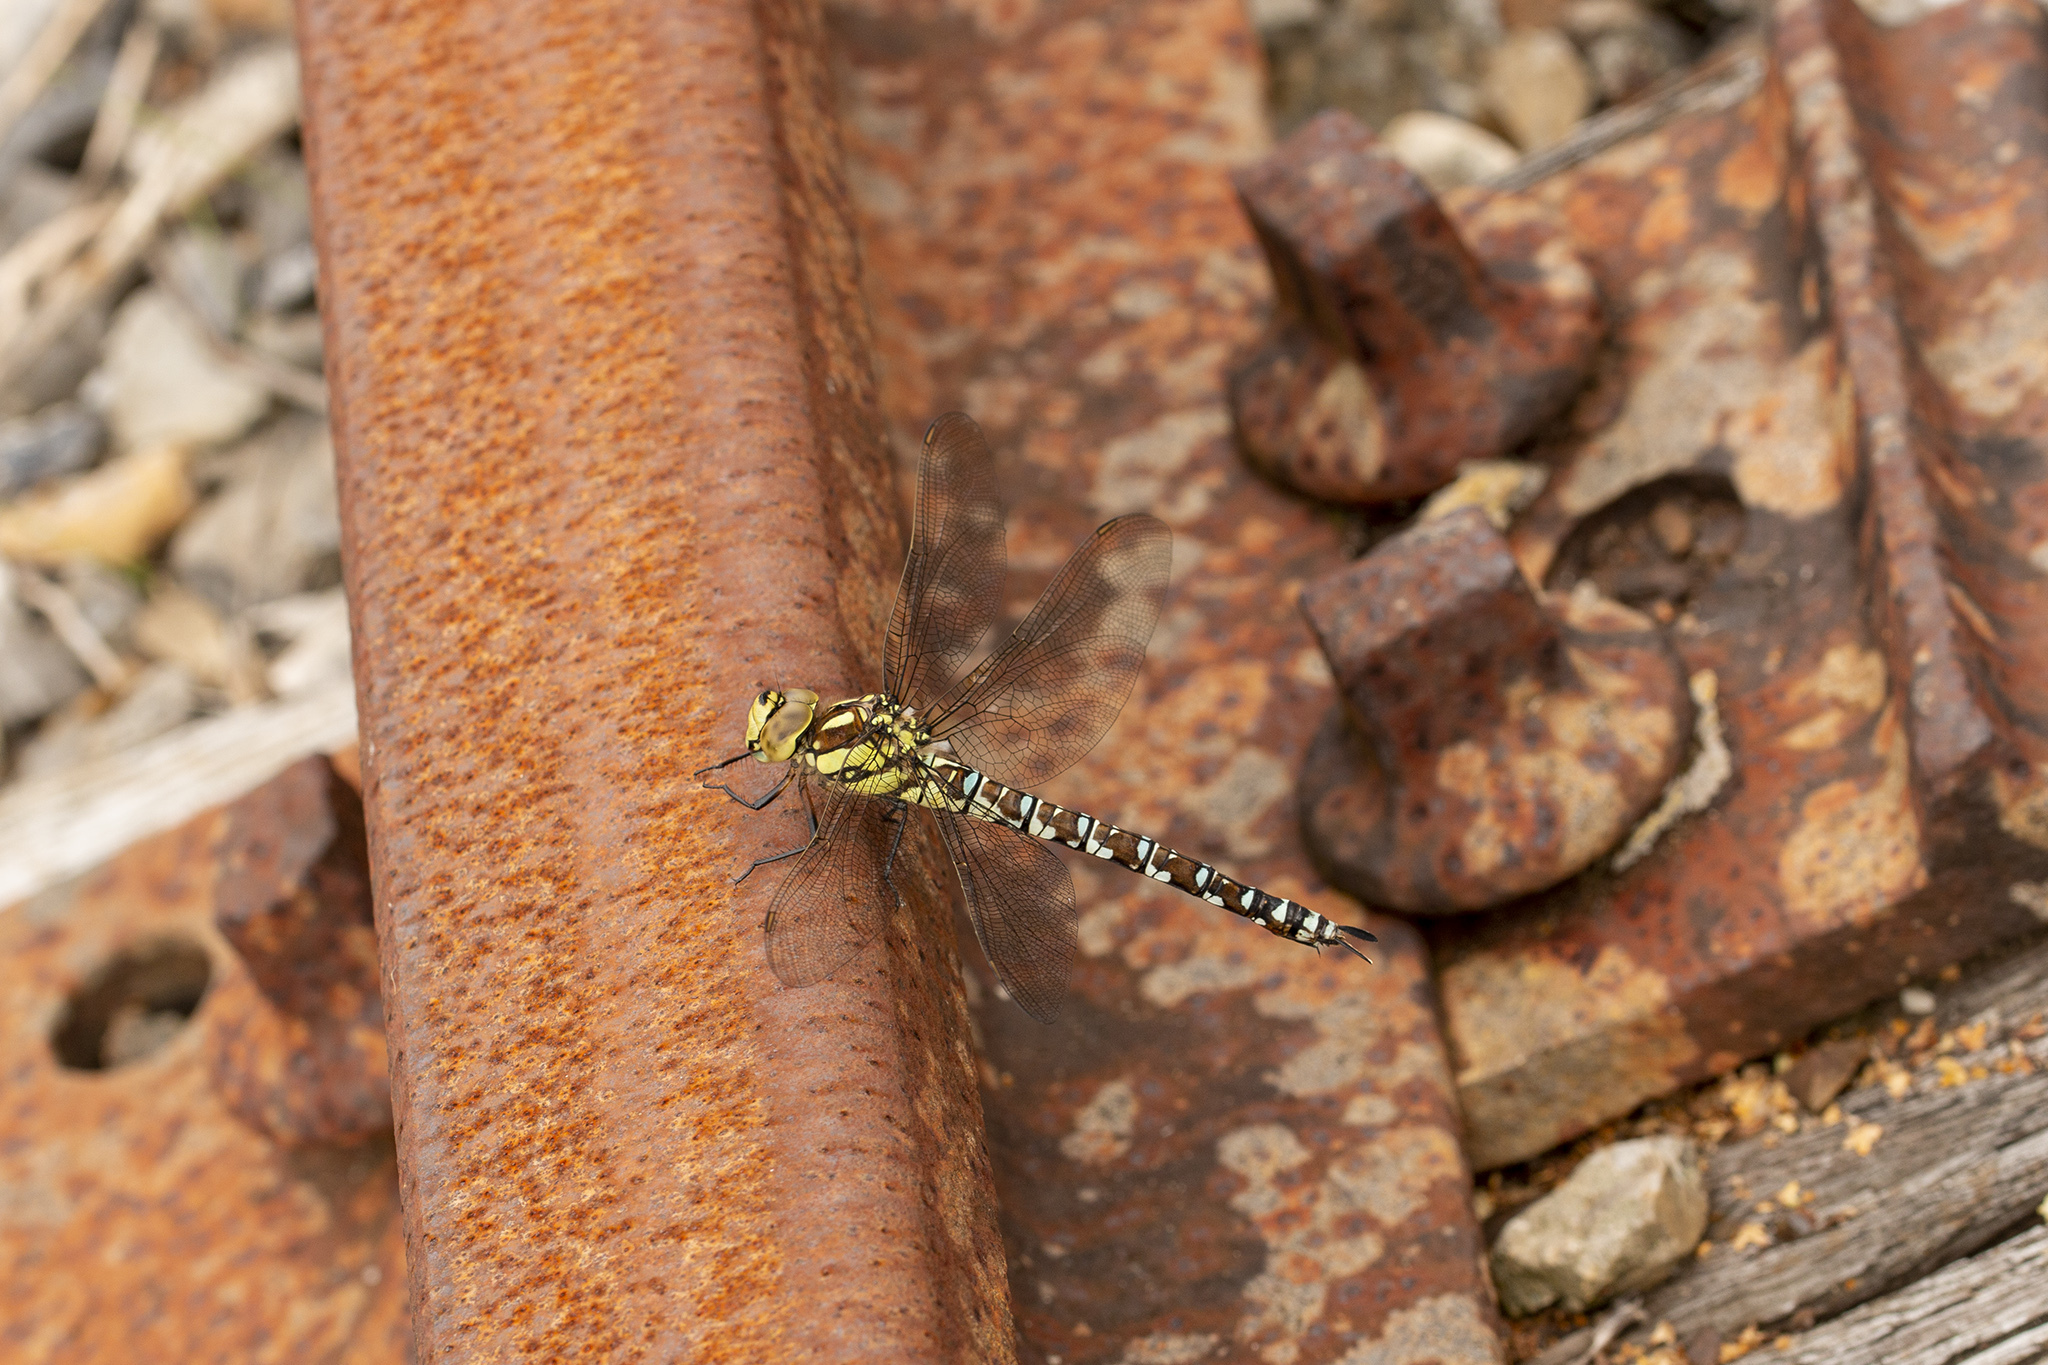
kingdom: Animalia
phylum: Arthropoda
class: Insecta
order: Odonata
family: Aeshnidae
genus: Aeshna
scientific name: Aeshna cyanea
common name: Southern hawker
